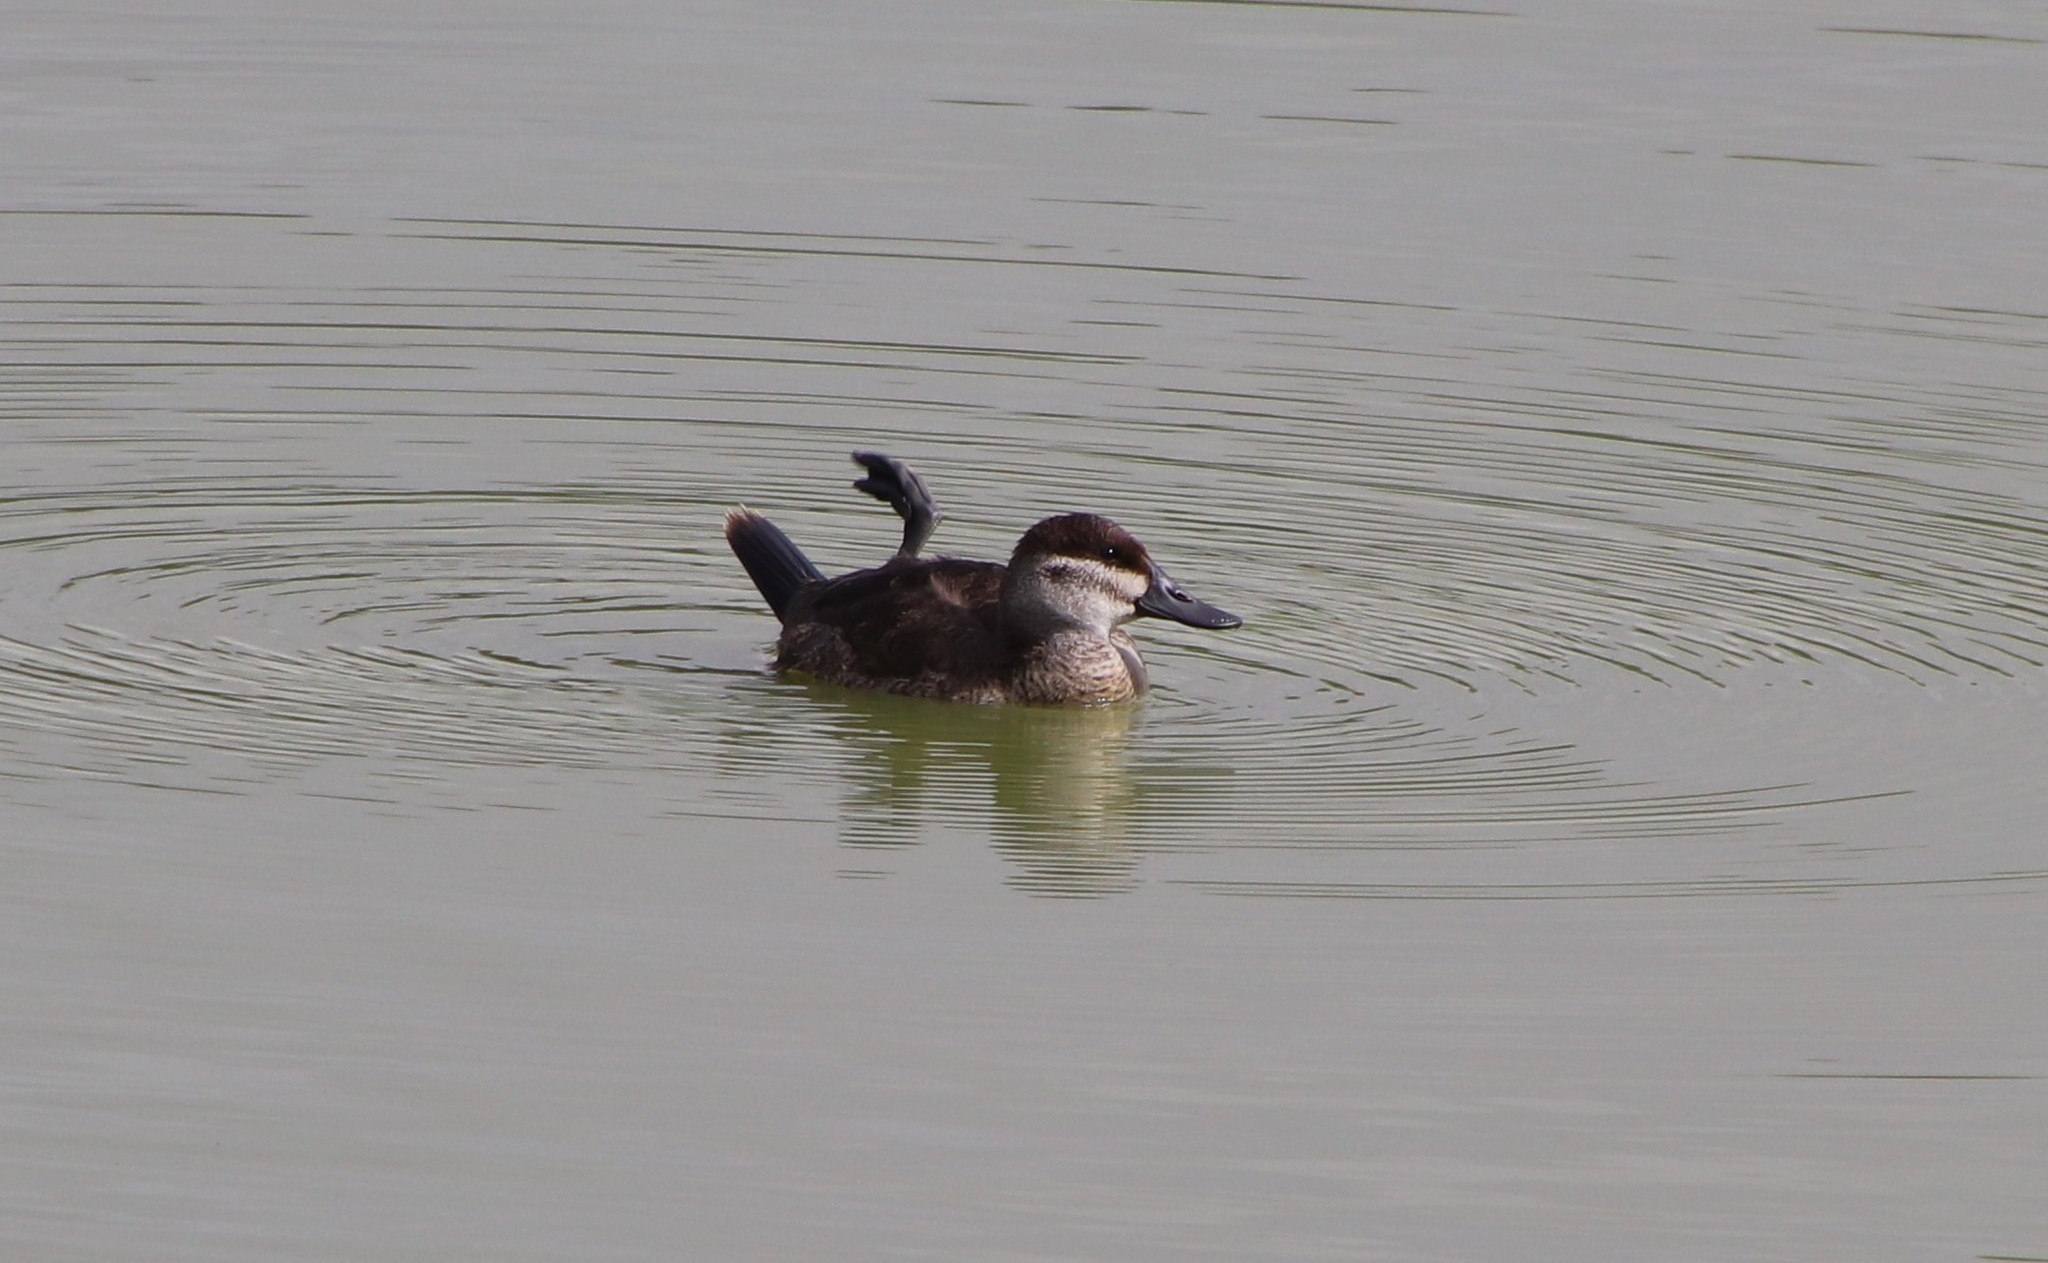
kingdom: Animalia
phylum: Chordata
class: Aves
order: Anseriformes
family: Anatidae
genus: Oxyura
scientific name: Oxyura jamaicensis
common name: Ruddy duck
